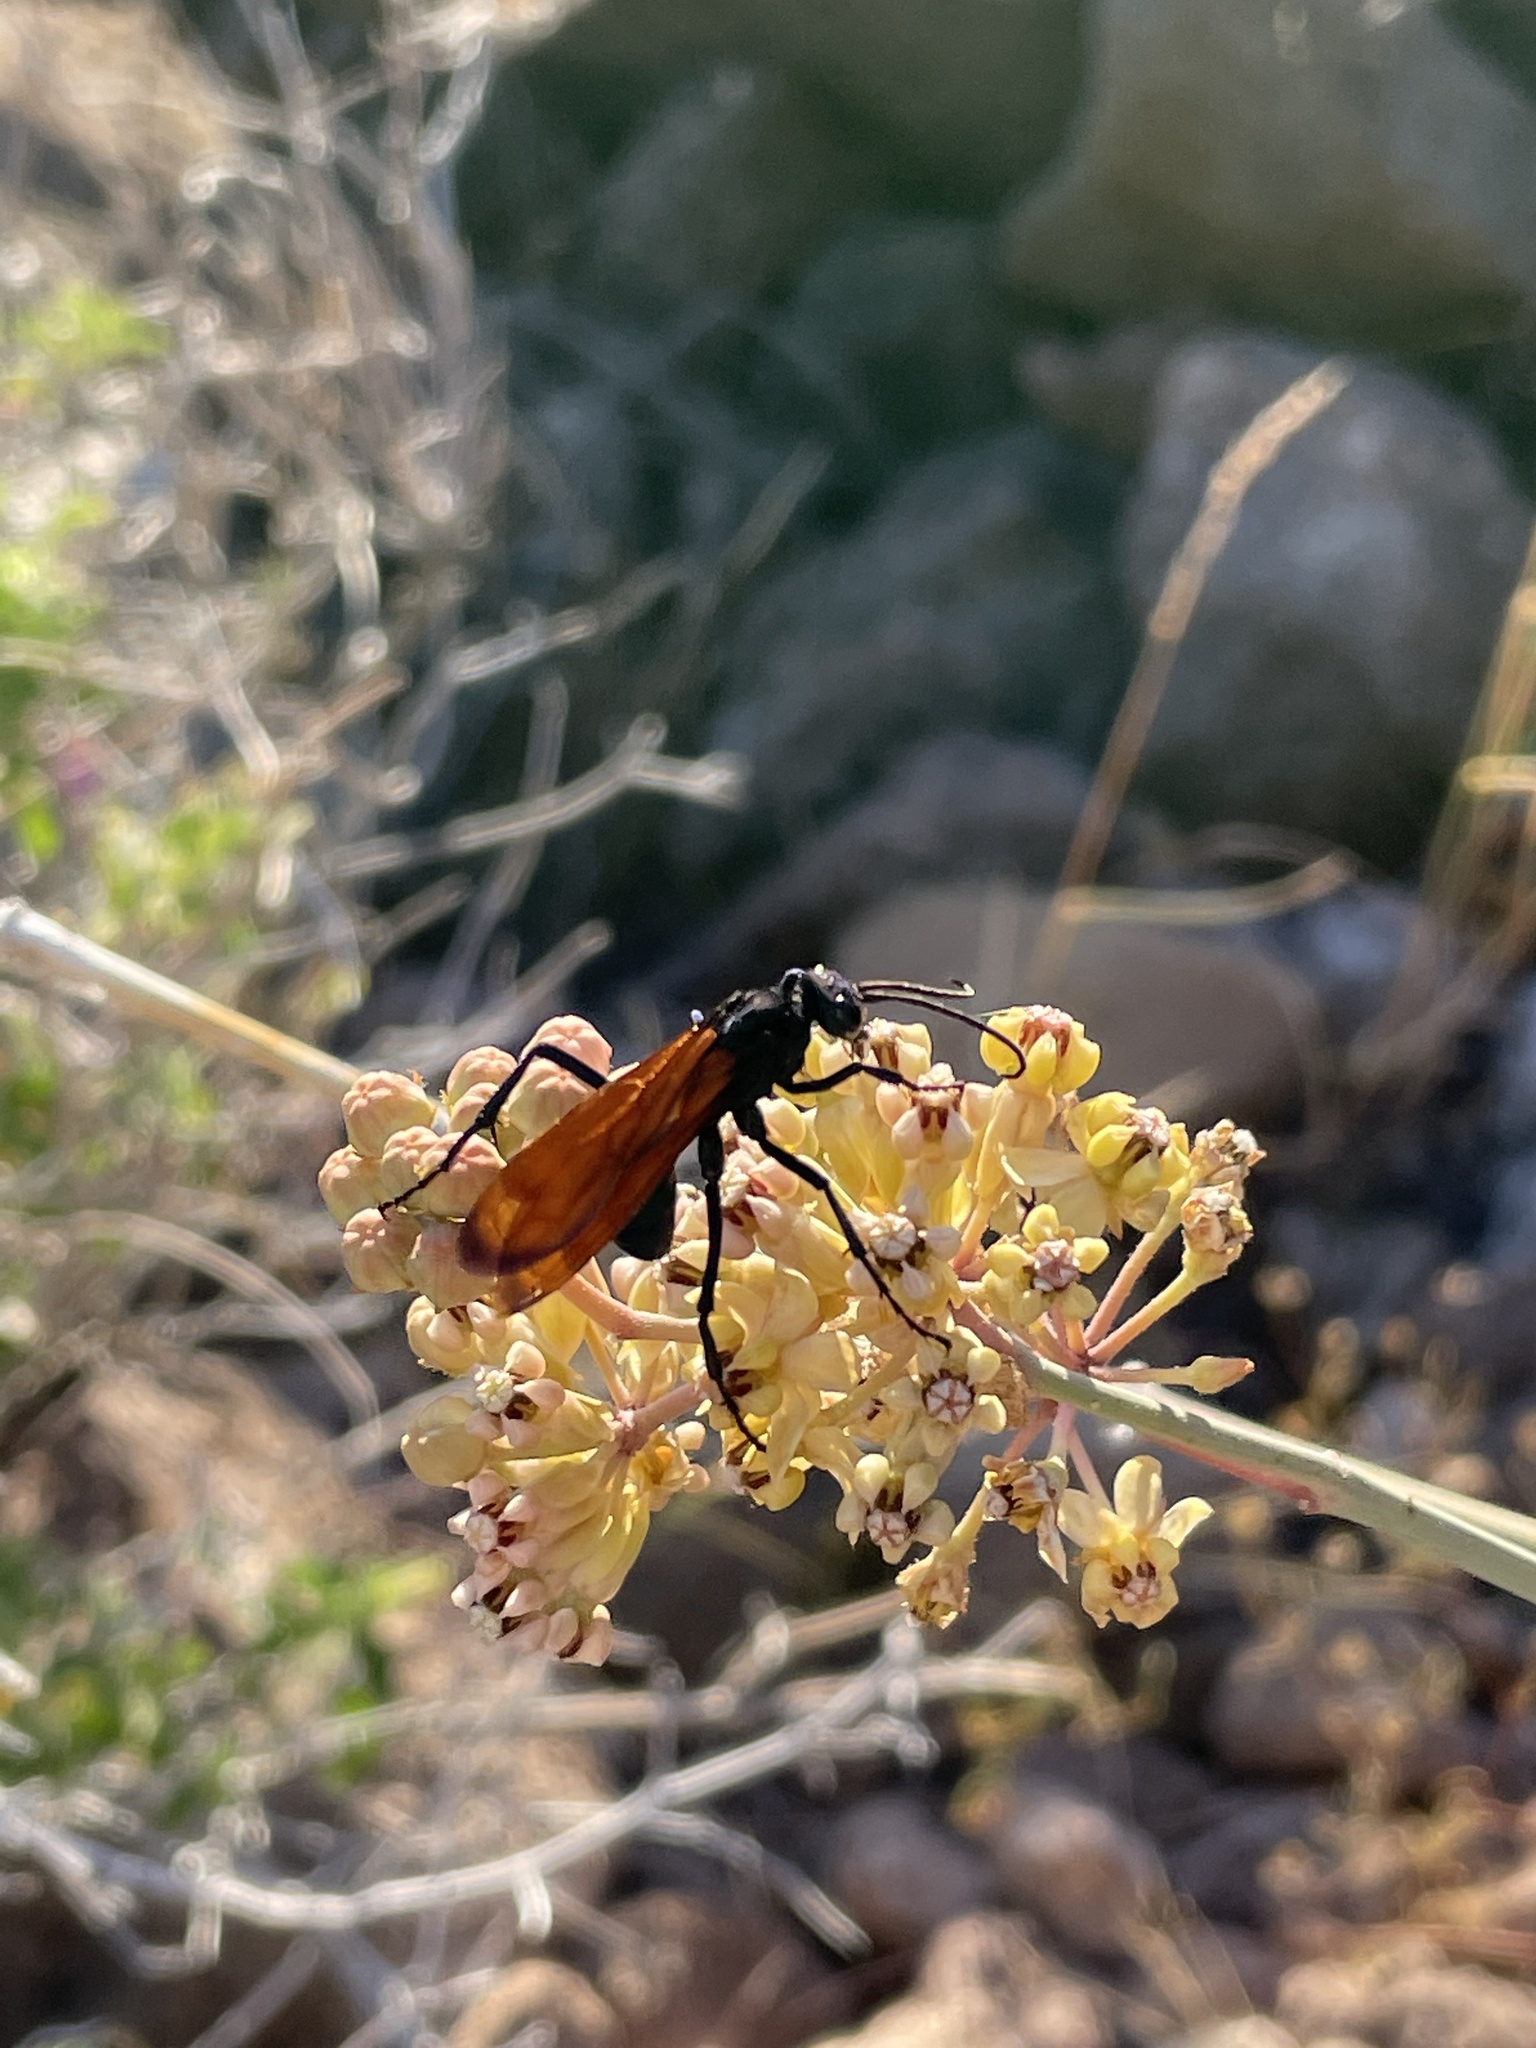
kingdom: Plantae
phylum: Tracheophyta
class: Magnoliopsida
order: Gentianales
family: Apocynaceae
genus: Asclepias
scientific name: Asclepias albicans
